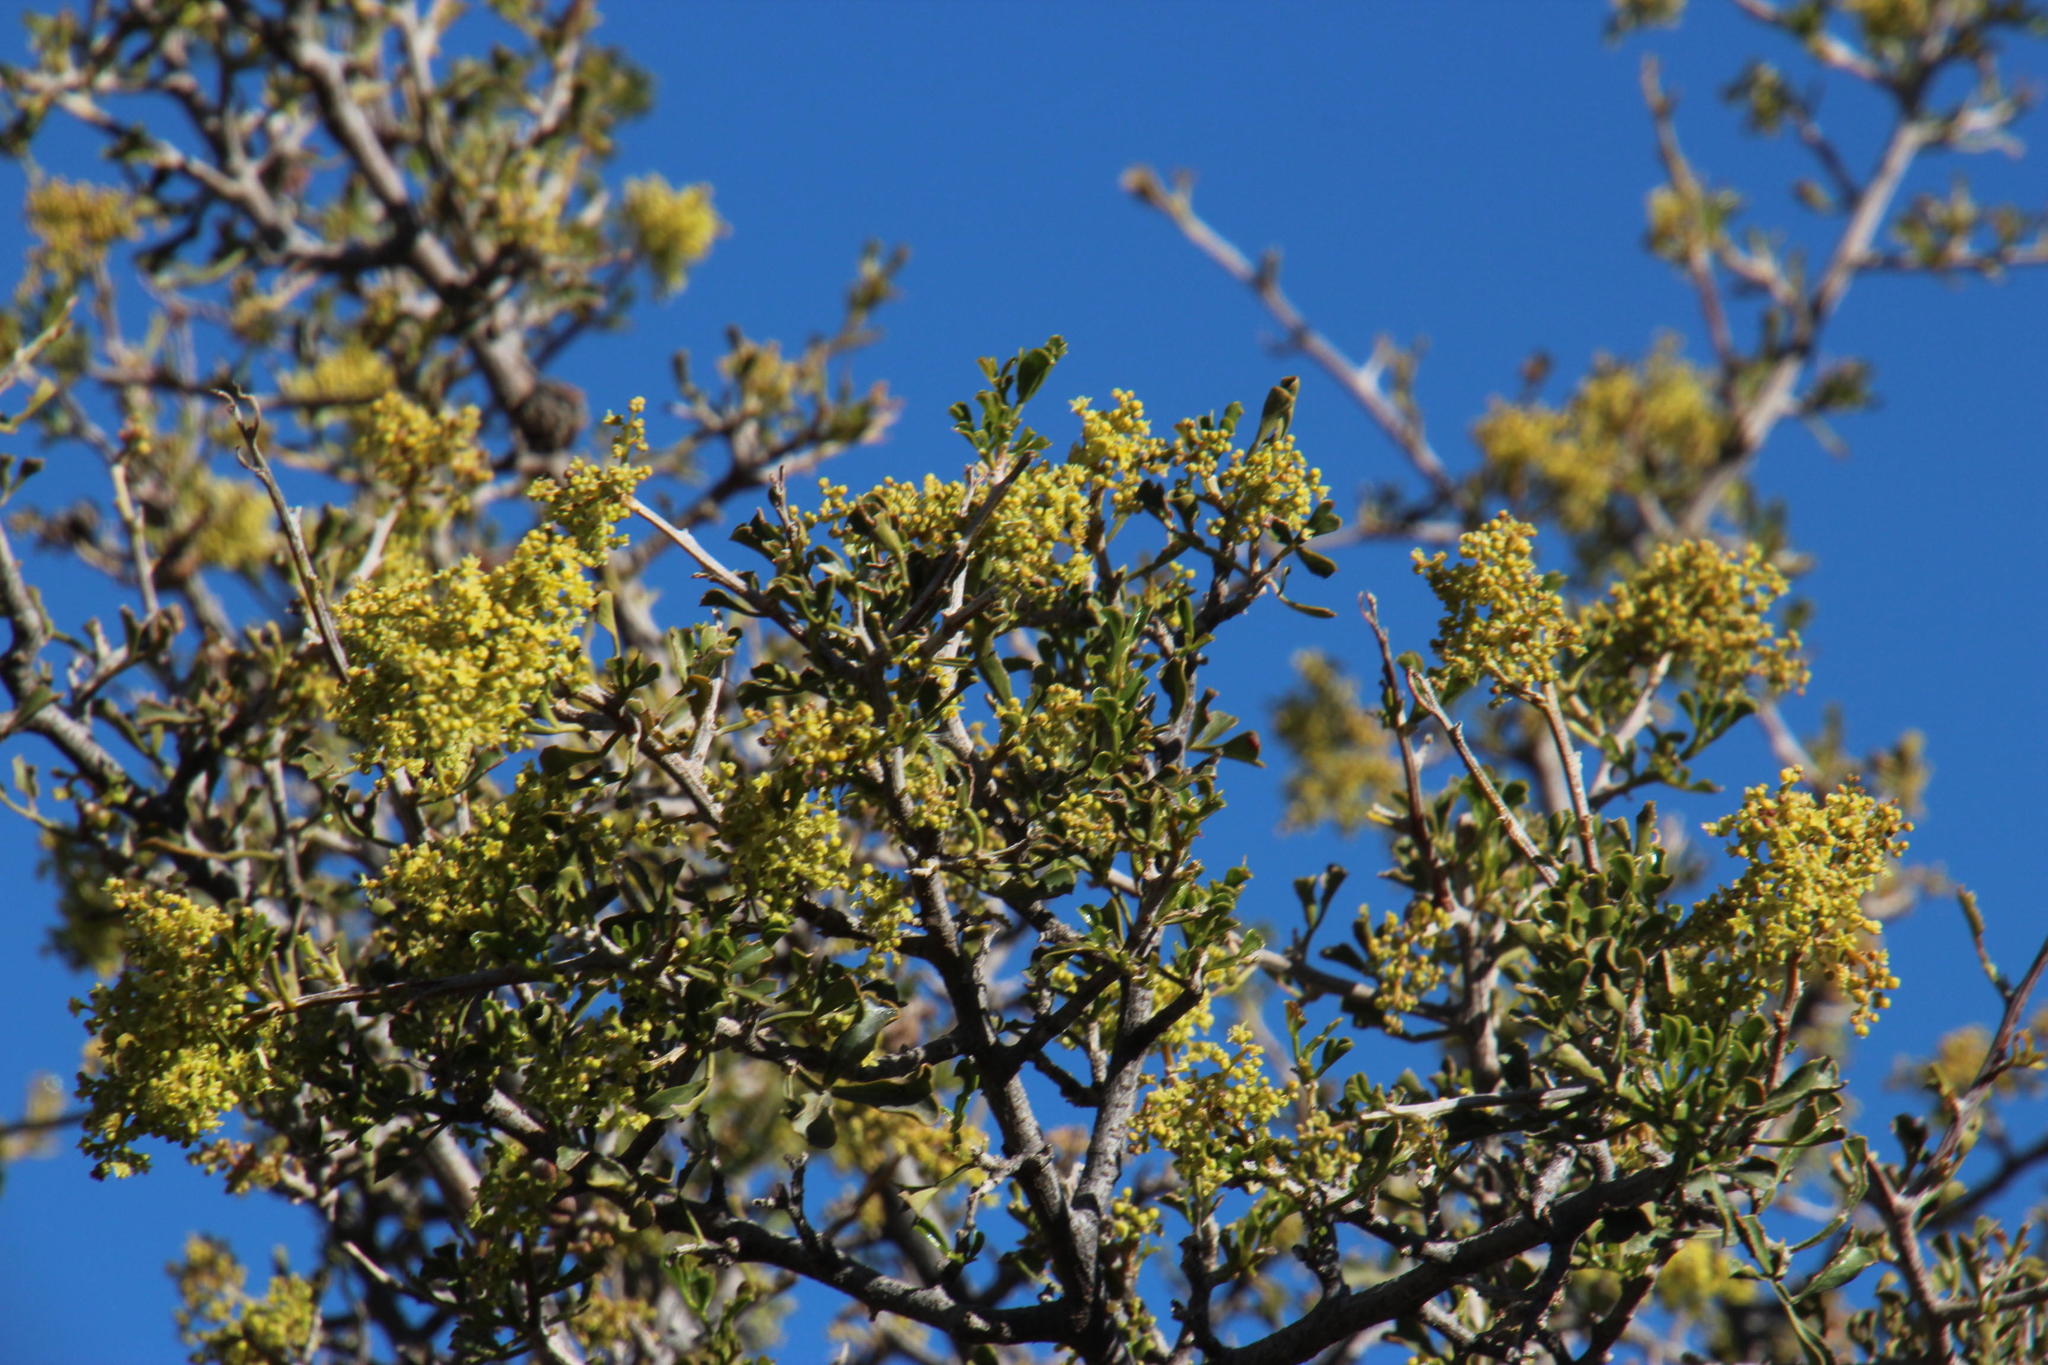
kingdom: Plantae
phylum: Tracheophyta
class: Magnoliopsida
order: Sapindales
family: Anacardiaceae
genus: Searsia
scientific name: Searsia burchellii
